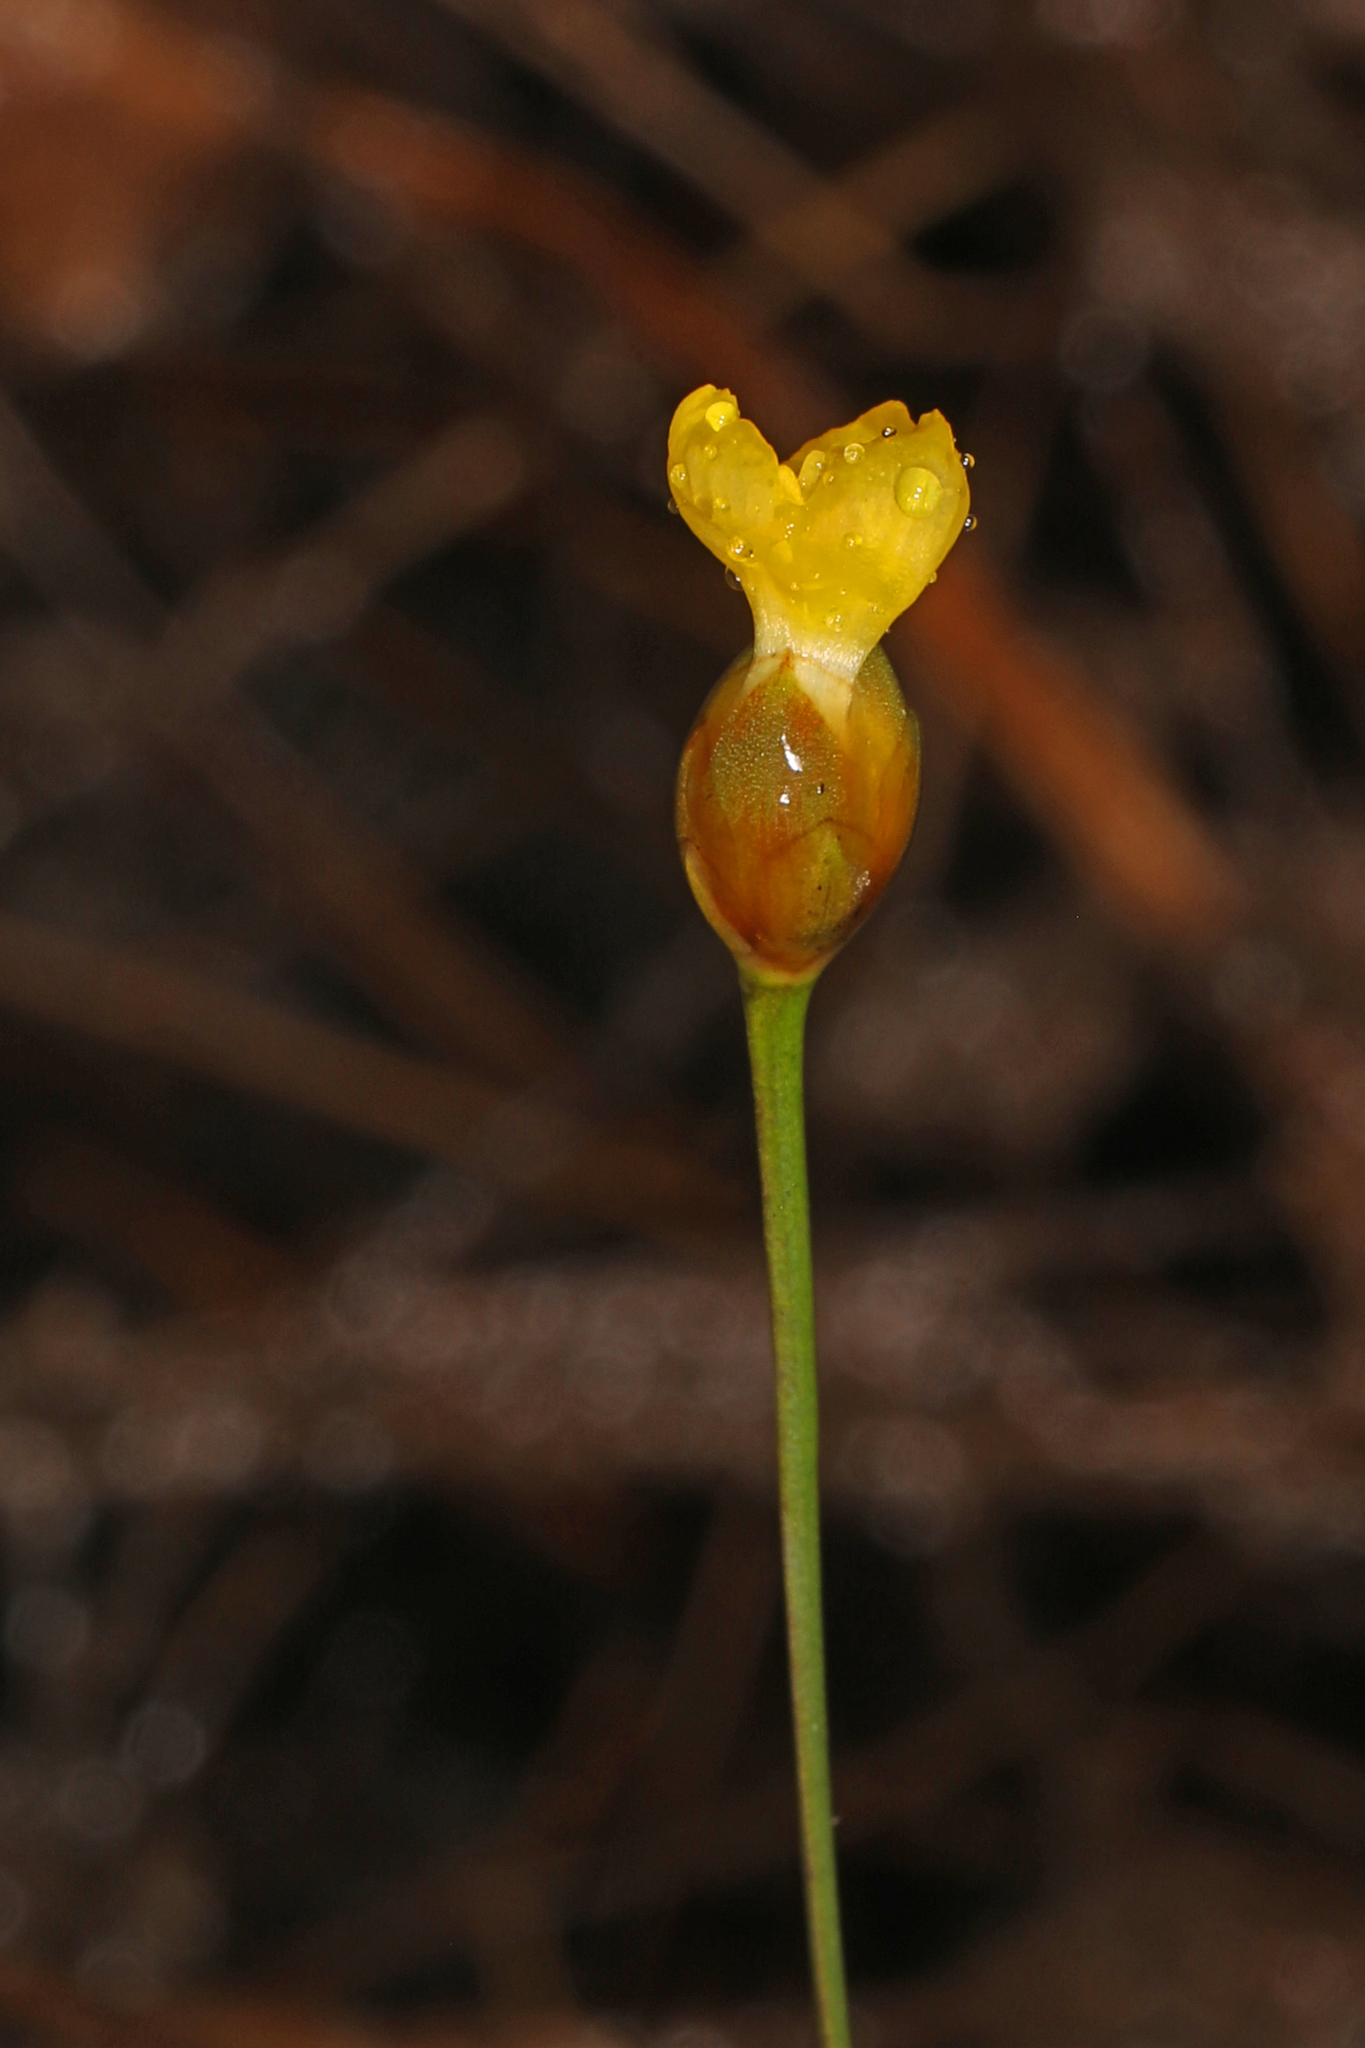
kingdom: Plantae
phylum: Tracheophyta
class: Liliopsida
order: Poales
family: Xyridaceae
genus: Xyris
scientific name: Xyris brevifolia
